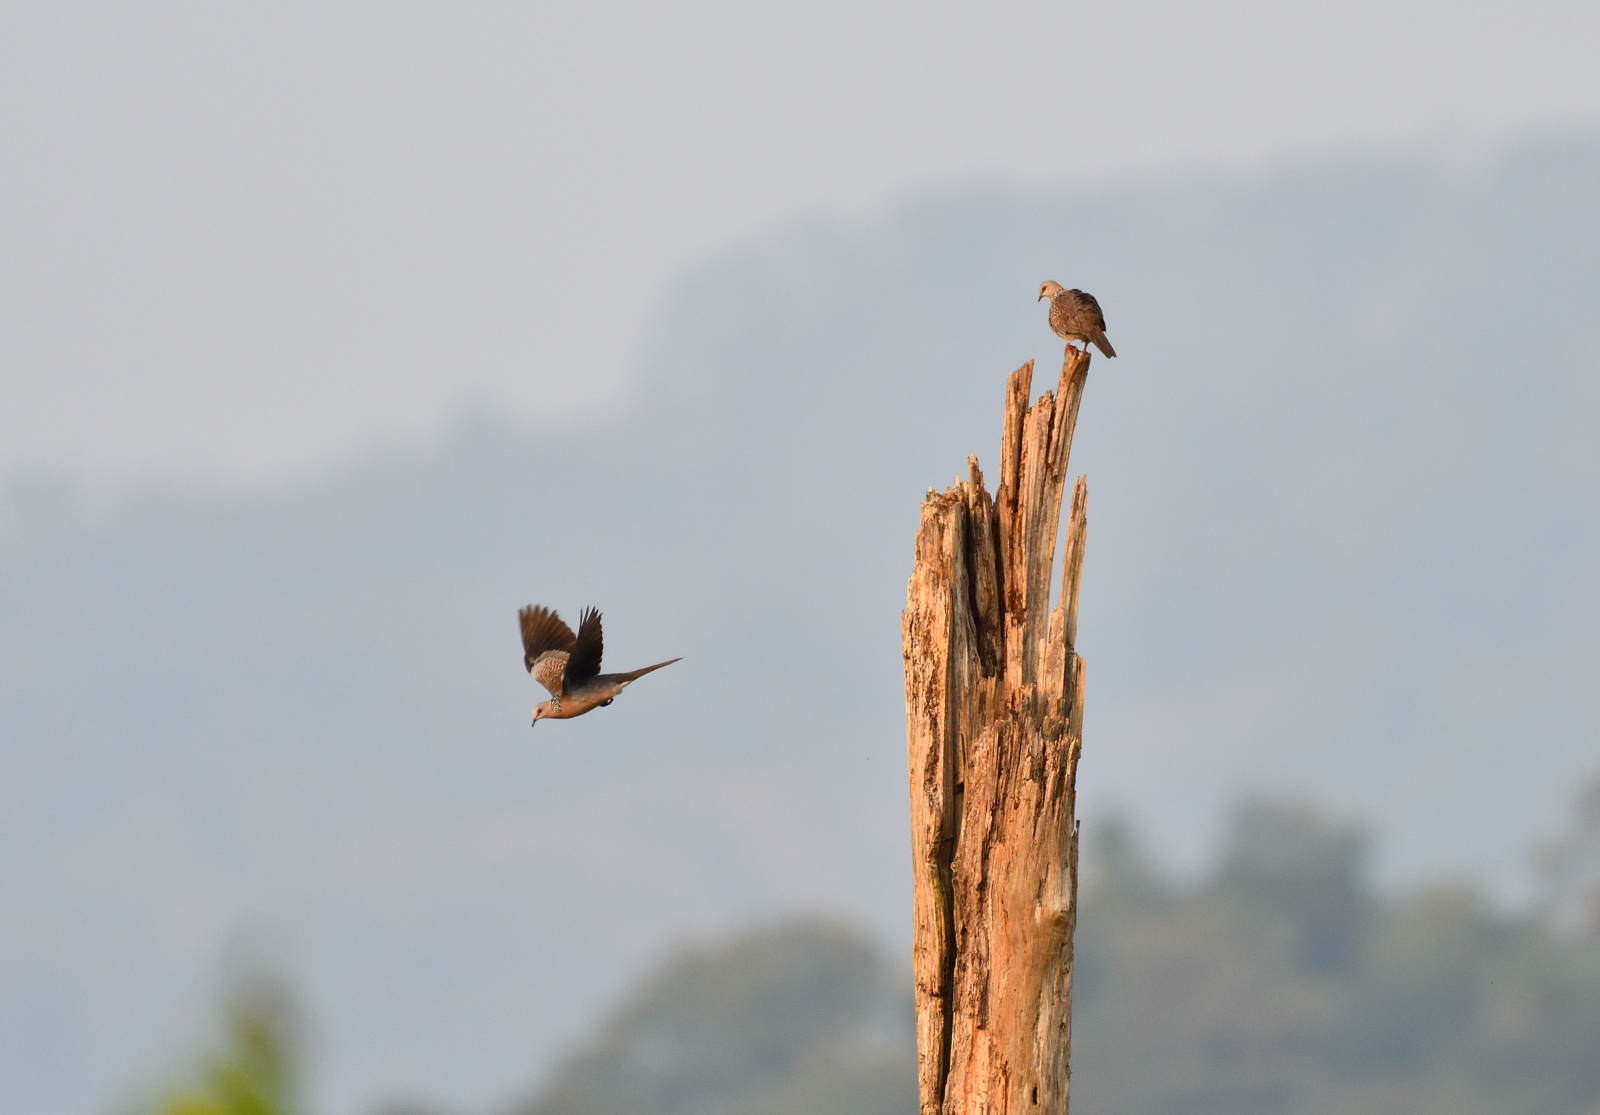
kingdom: Animalia
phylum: Chordata
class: Aves
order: Columbiformes
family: Columbidae
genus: Spilopelia
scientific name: Spilopelia chinensis
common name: Spotted dove
